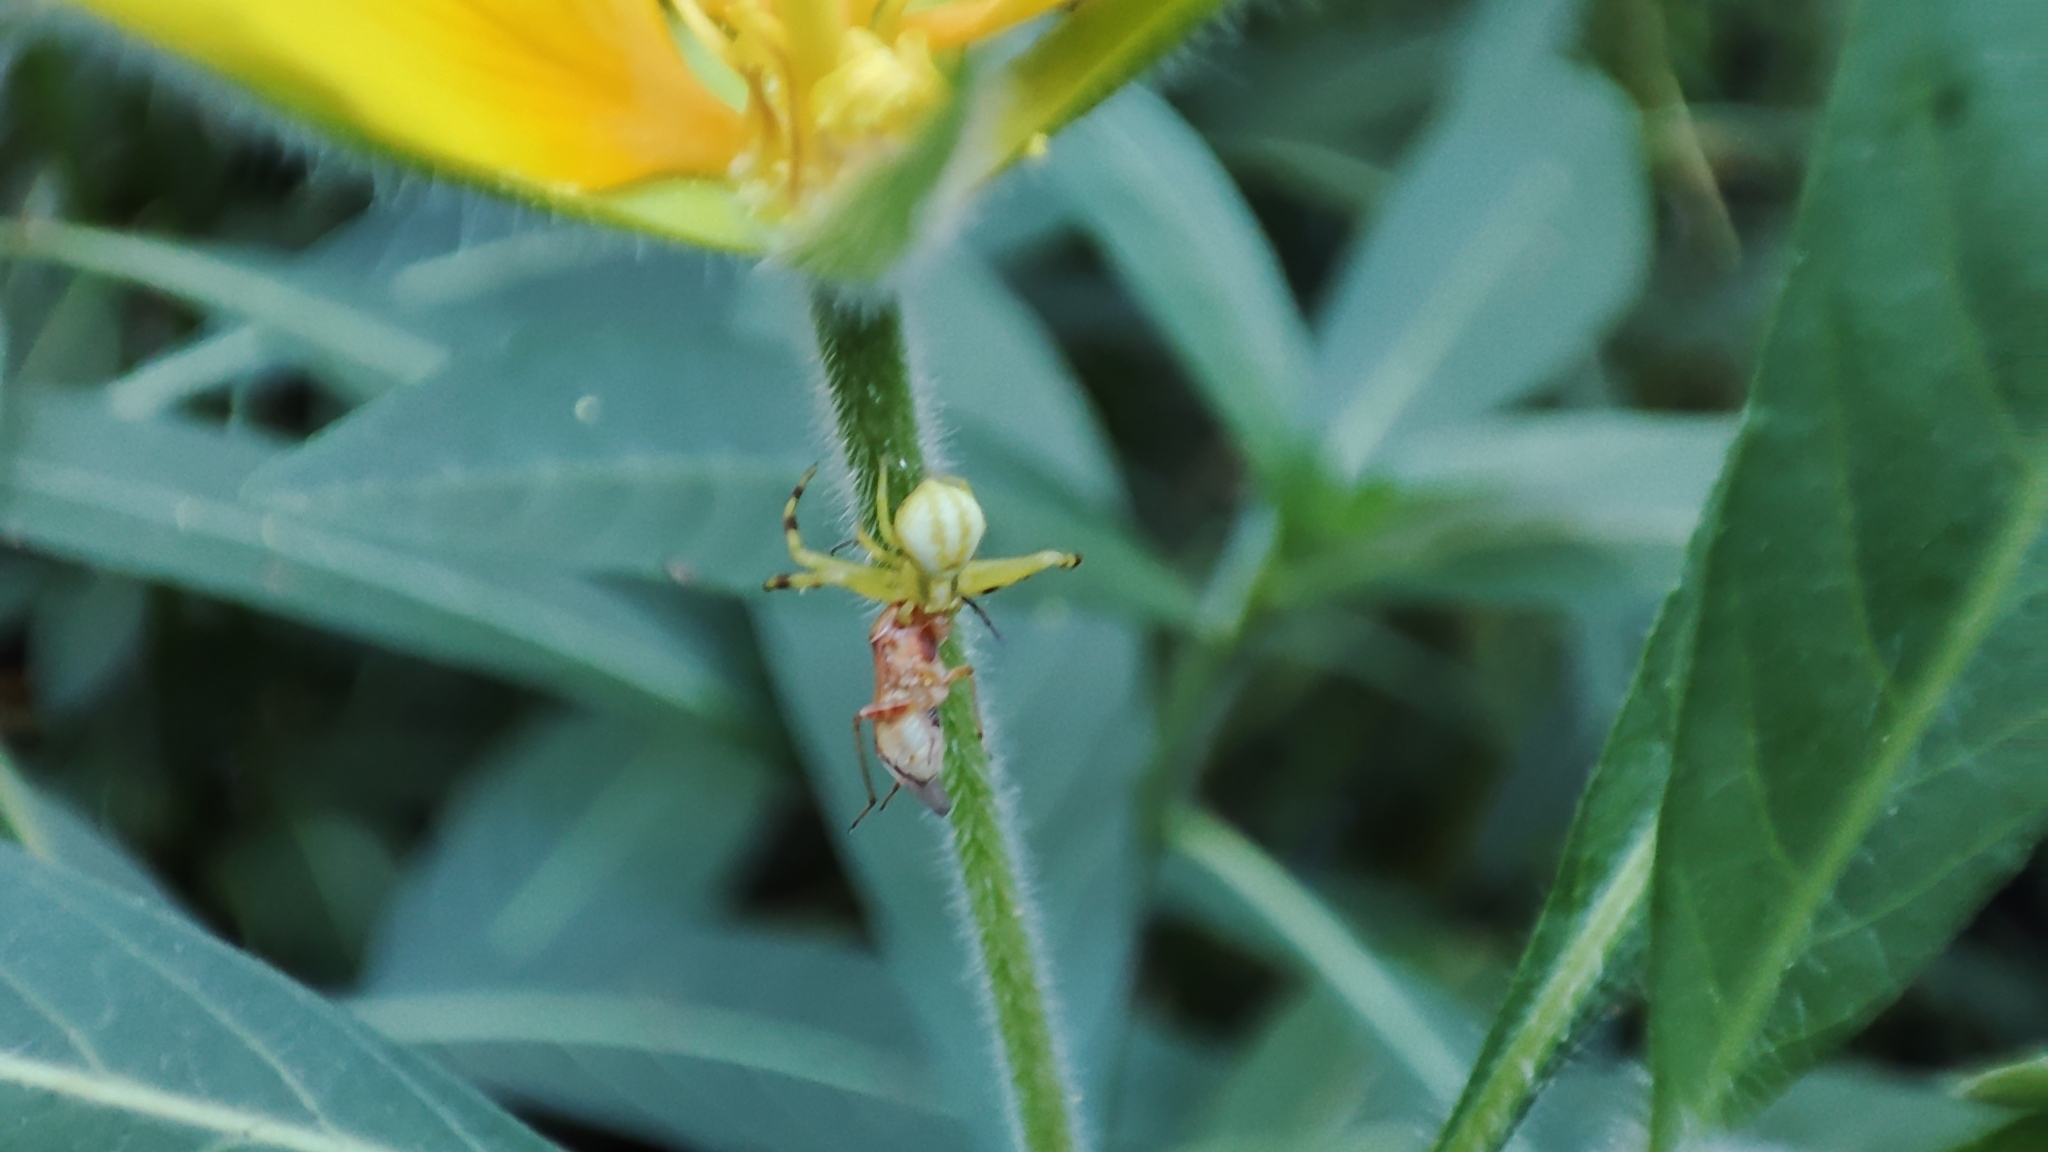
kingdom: Animalia
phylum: Arthropoda
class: Arachnida
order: Araneae
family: Thomisidae
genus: Misumena
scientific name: Misumena vatia
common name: Goldenrod crab spider
